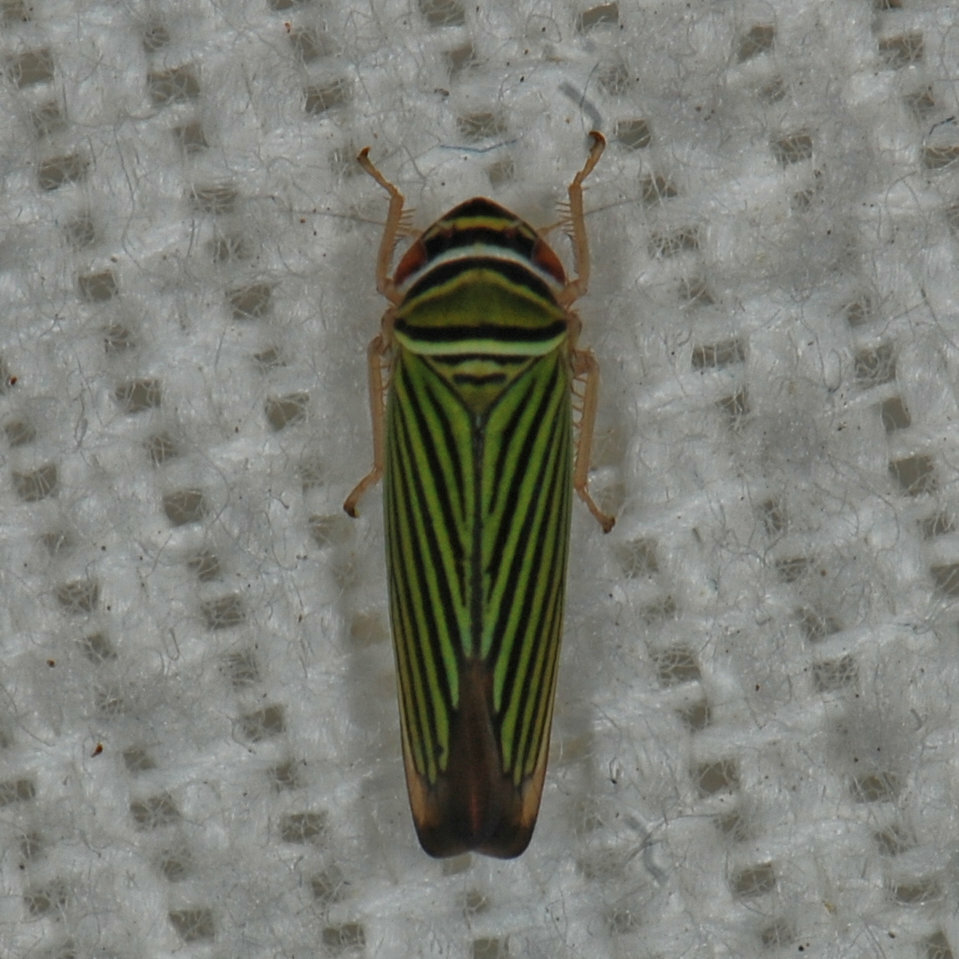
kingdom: Animalia
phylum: Arthropoda
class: Insecta
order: Hemiptera
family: Cicadellidae
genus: Tylozygus
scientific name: Tylozygus bifidus
